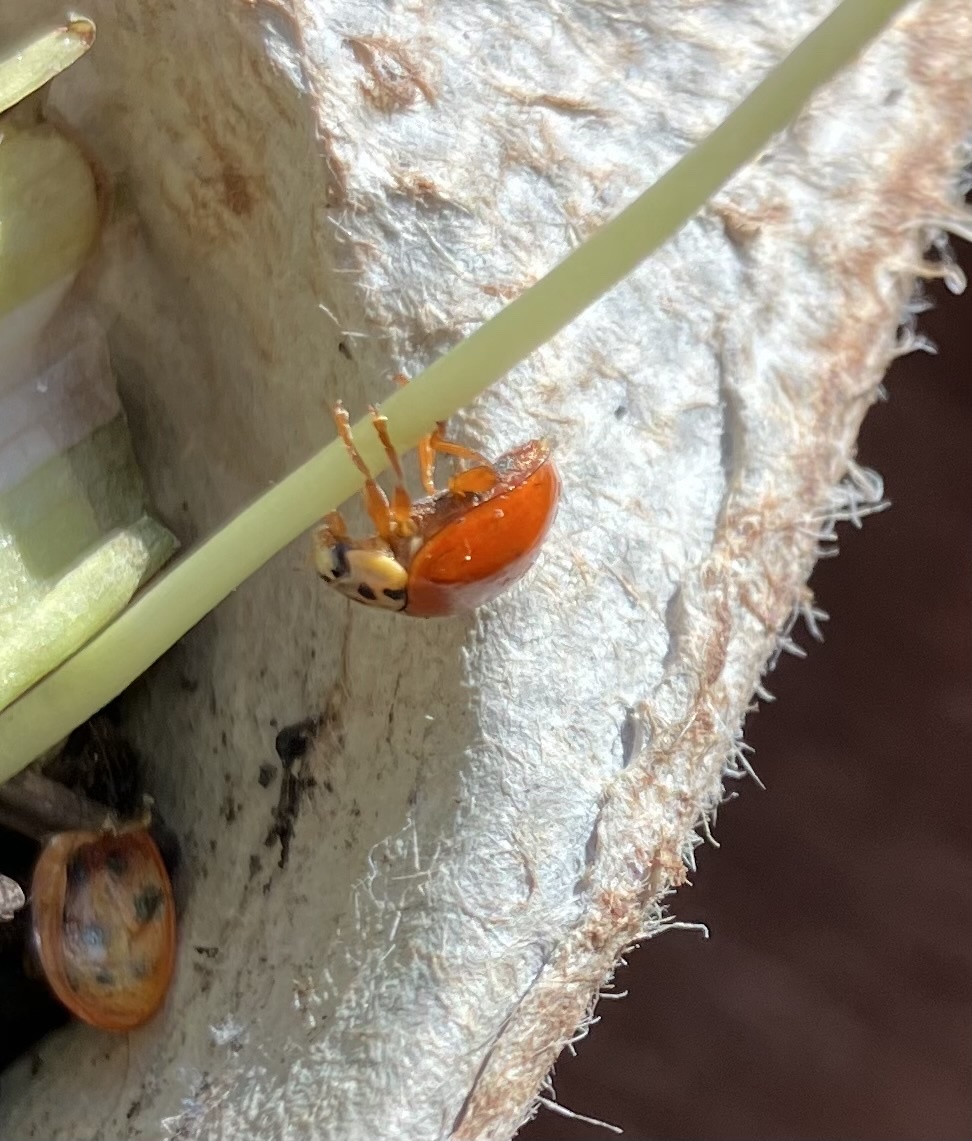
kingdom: Animalia
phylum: Arthropoda
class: Insecta
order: Coleoptera
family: Coccinellidae
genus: Harmonia
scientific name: Harmonia axyridis
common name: Harlequin ladybird
